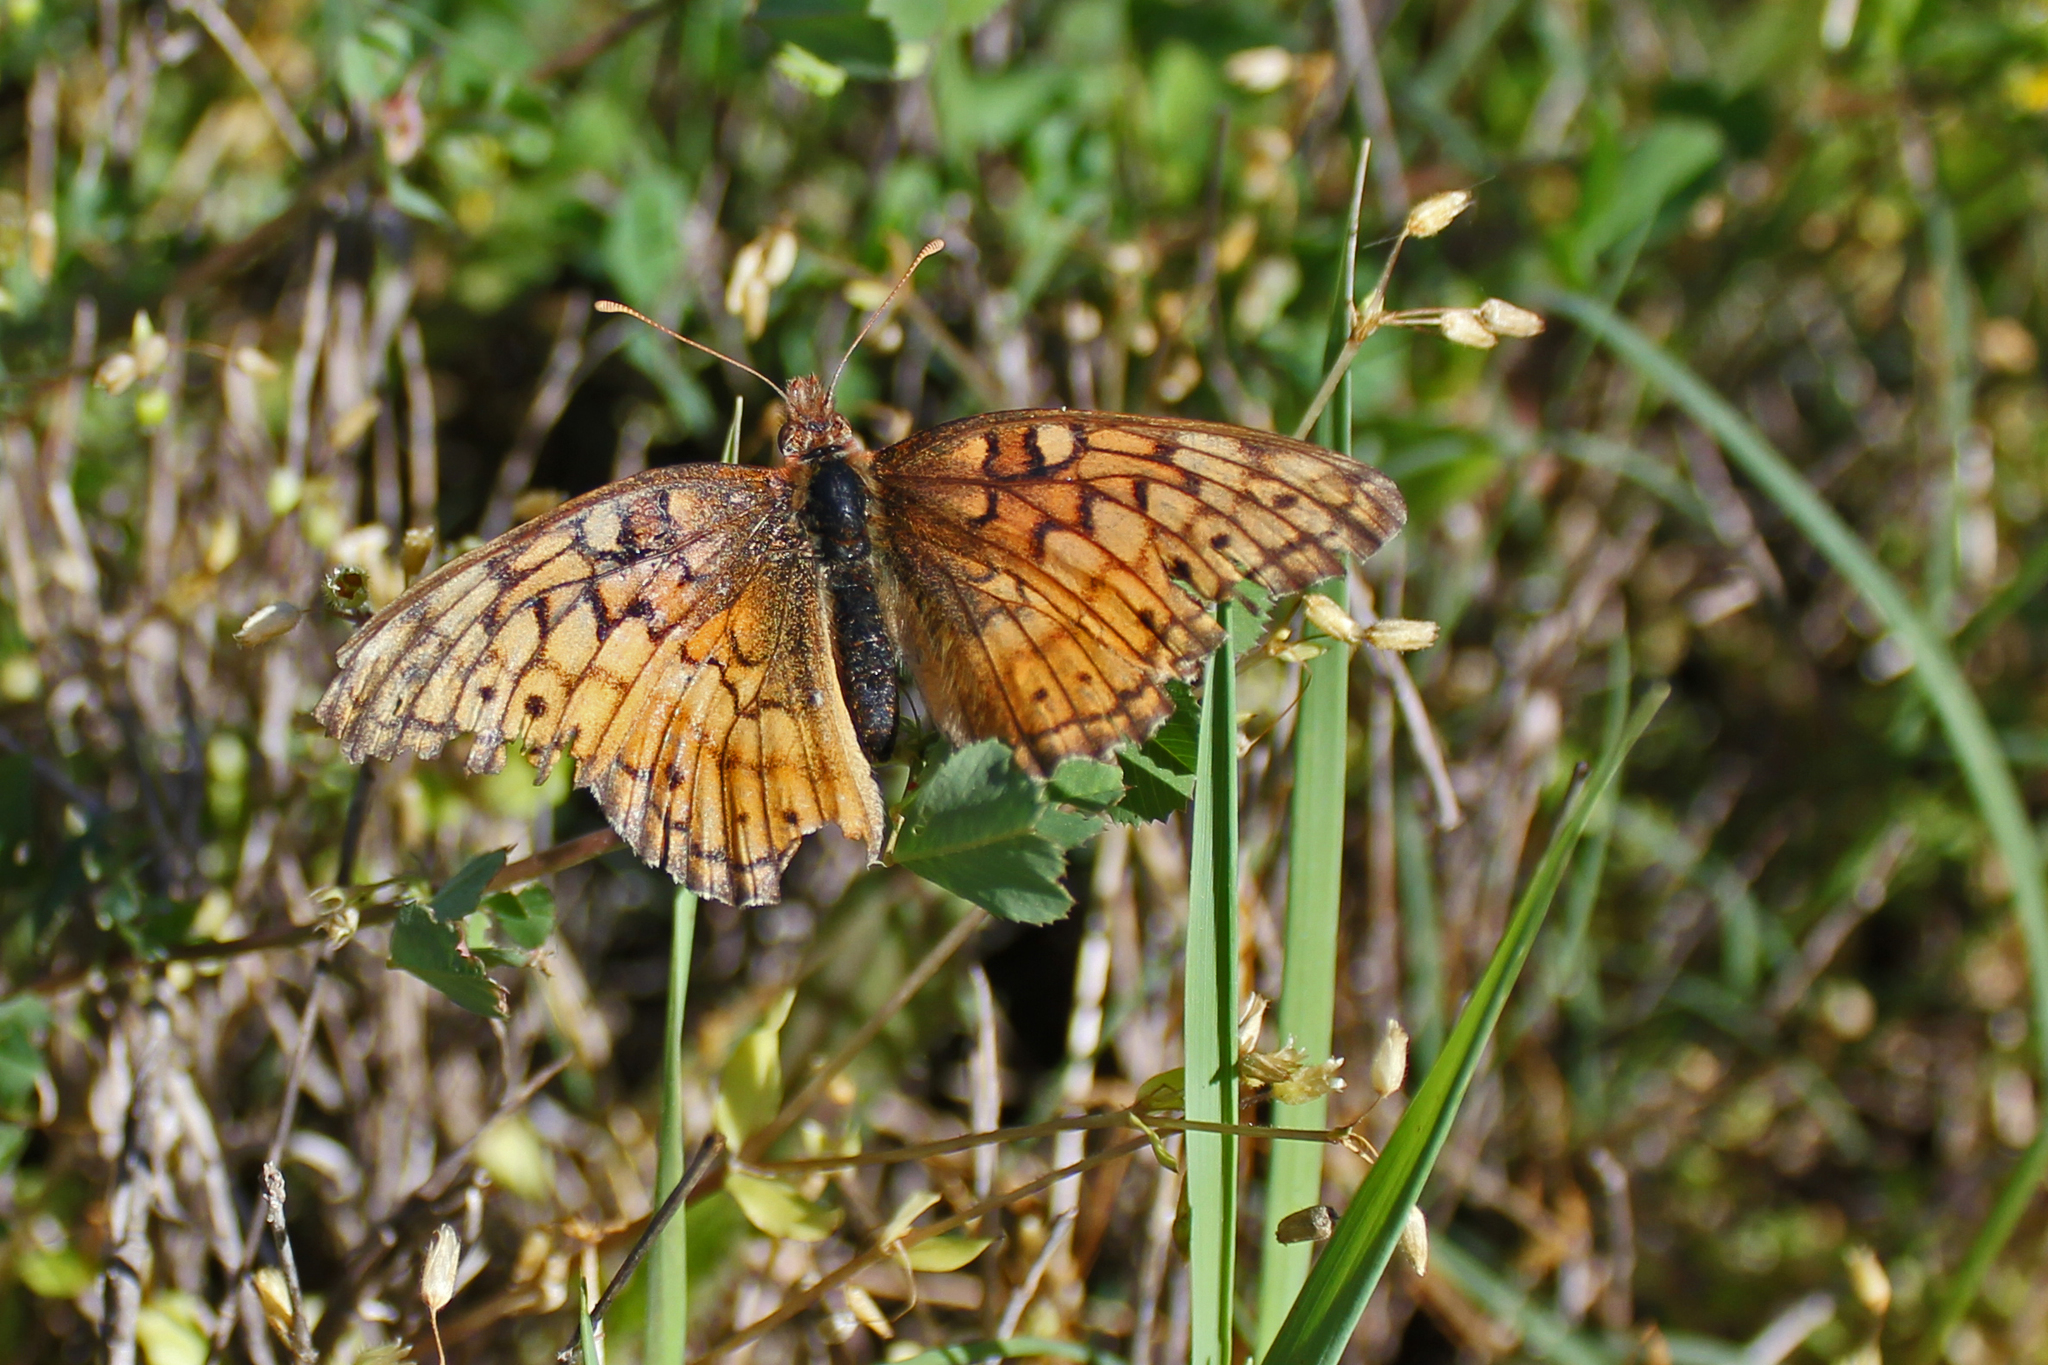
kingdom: Animalia
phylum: Arthropoda
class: Insecta
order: Lepidoptera
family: Nymphalidae
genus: Euptoieta
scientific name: Euptoieta claudia
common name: Variegated fritillary
